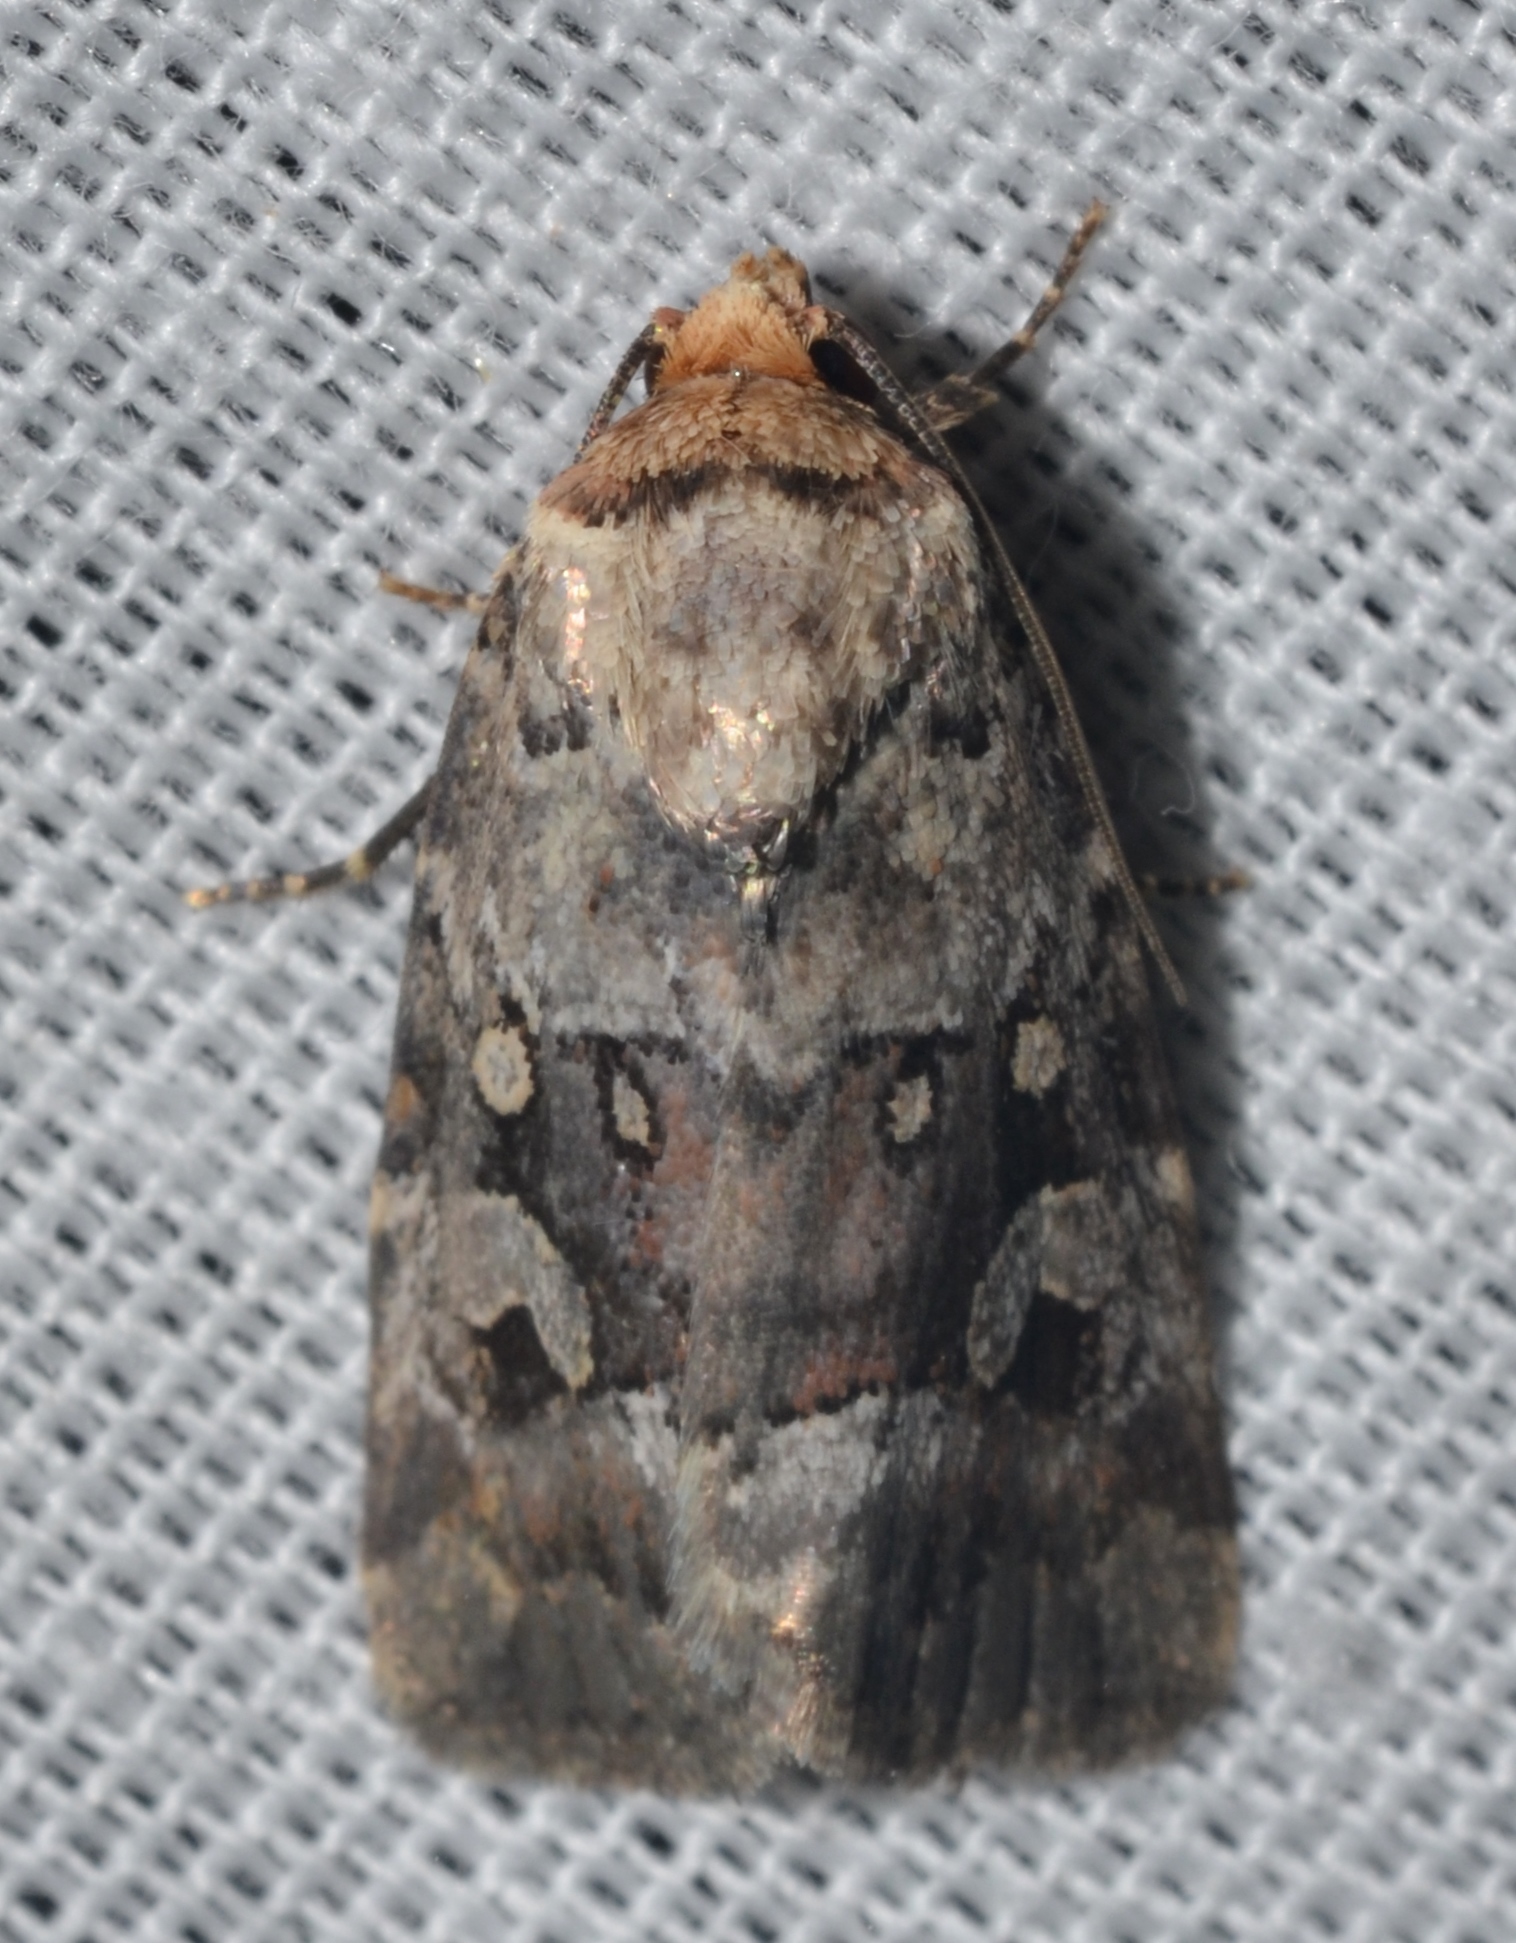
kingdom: Animalia
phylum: Arthropoda
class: Insecta
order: Lepidoptera
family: Noctuidae
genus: Elaphria
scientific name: Elaphria alapallida
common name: Pale-winged midget
